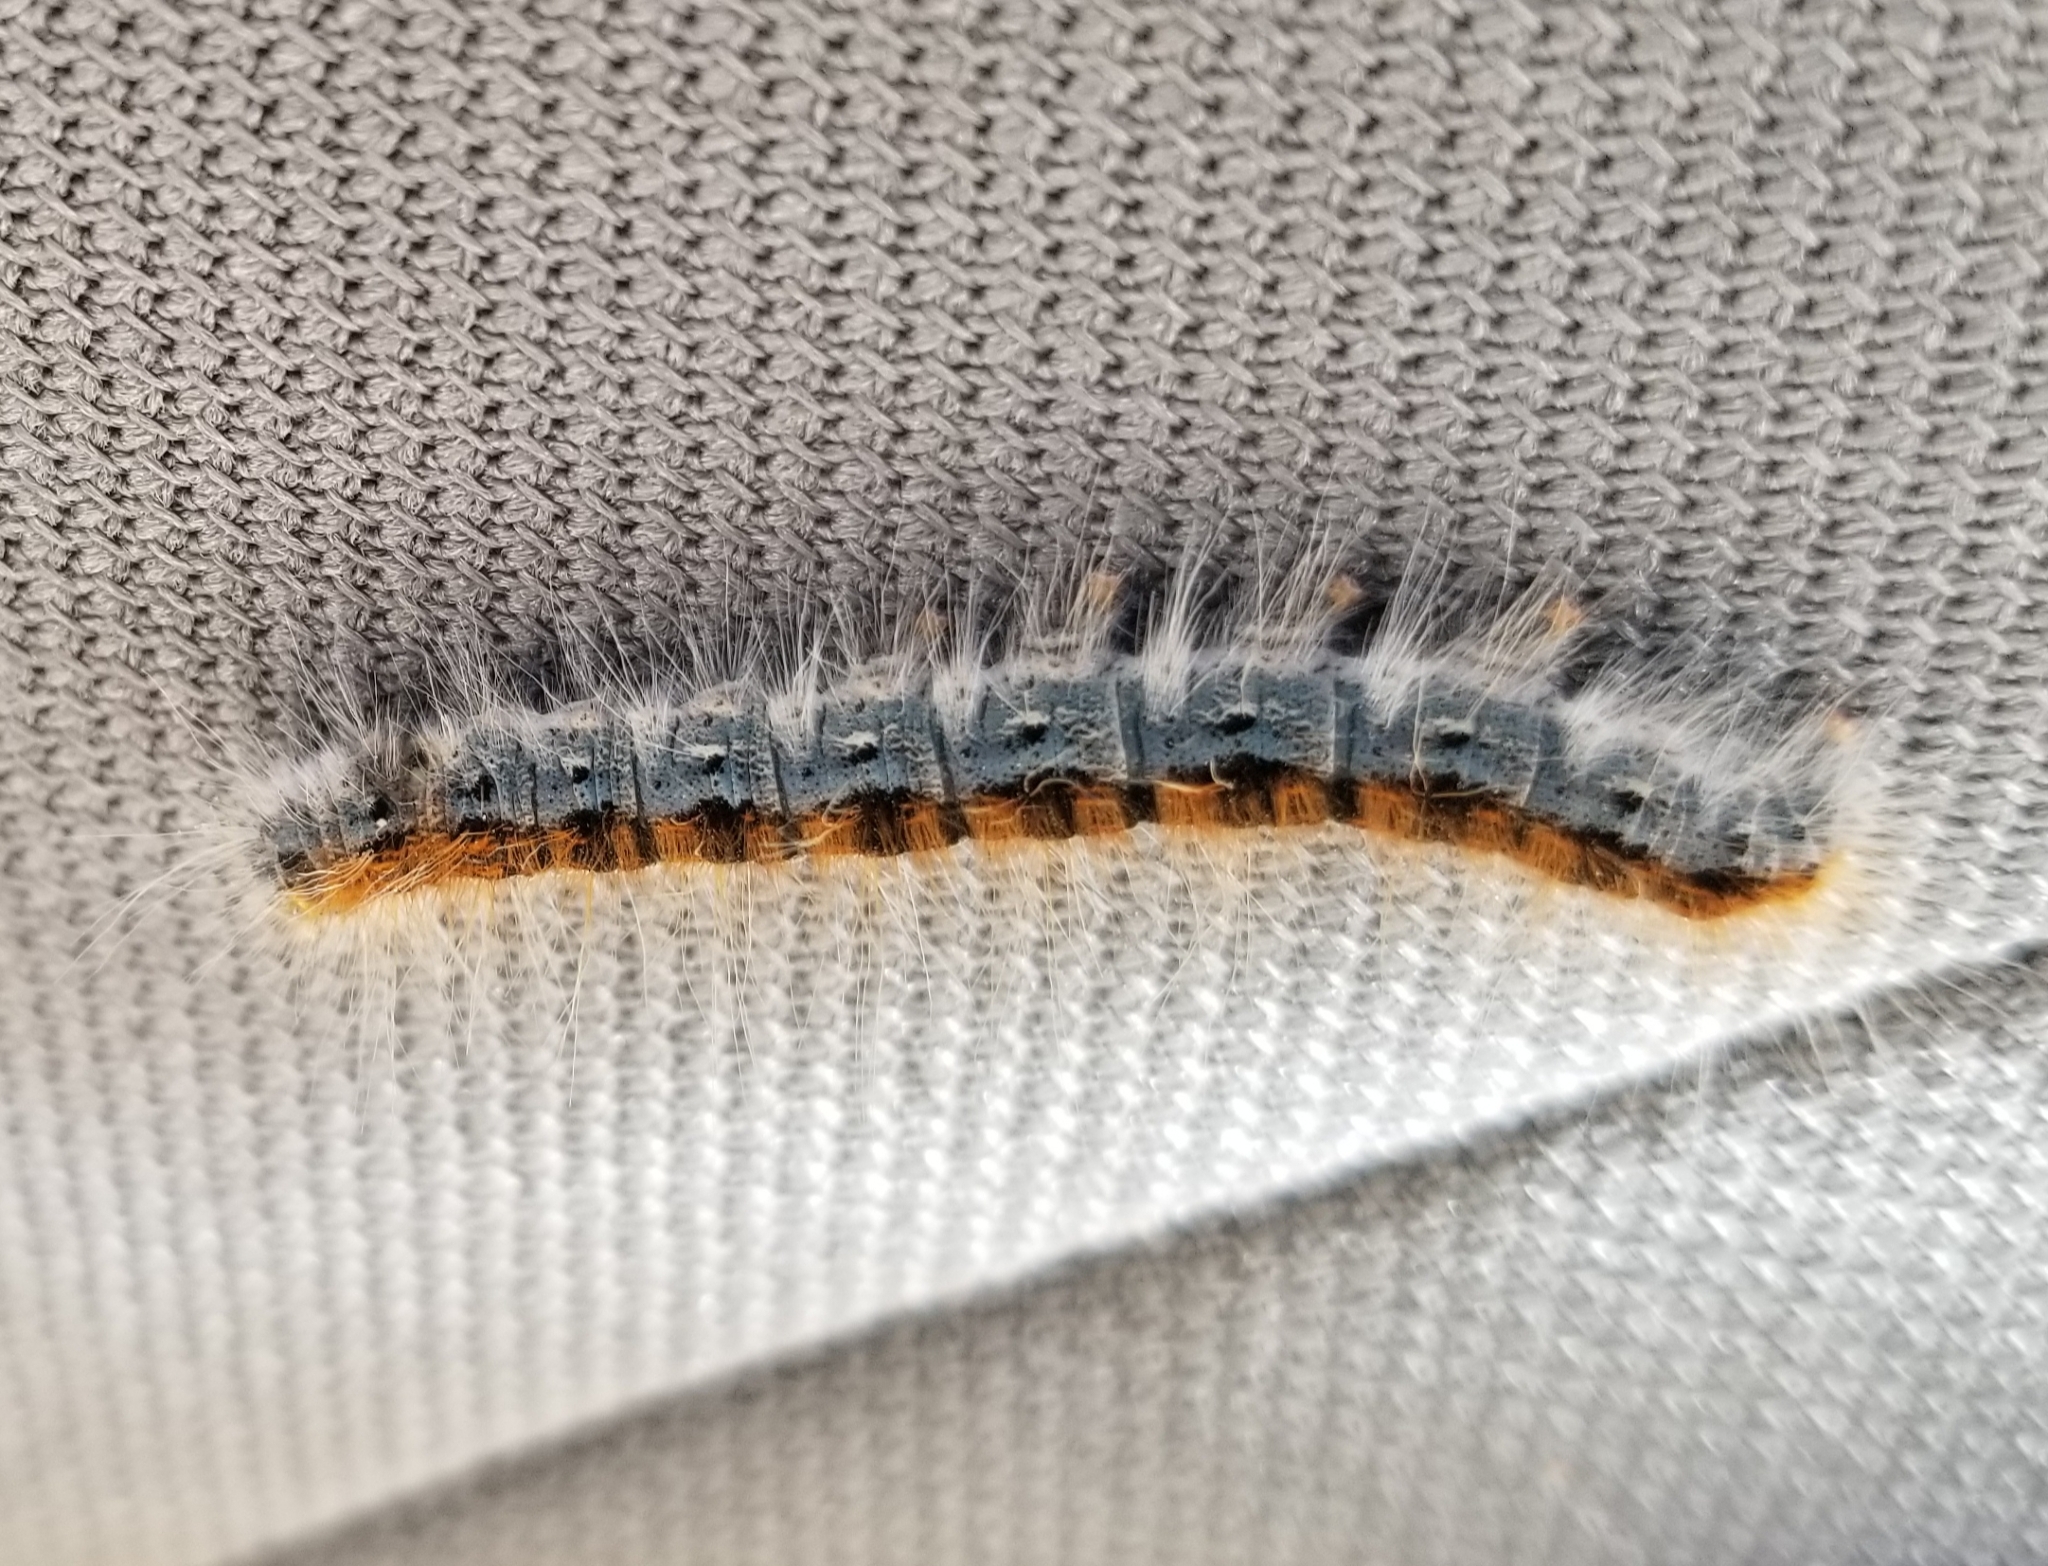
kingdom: Animalia
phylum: Arthropoda
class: Insecta
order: Lepidoptera
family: Lasiocampidae
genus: Malacosoma
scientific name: Malacosoma incurva
